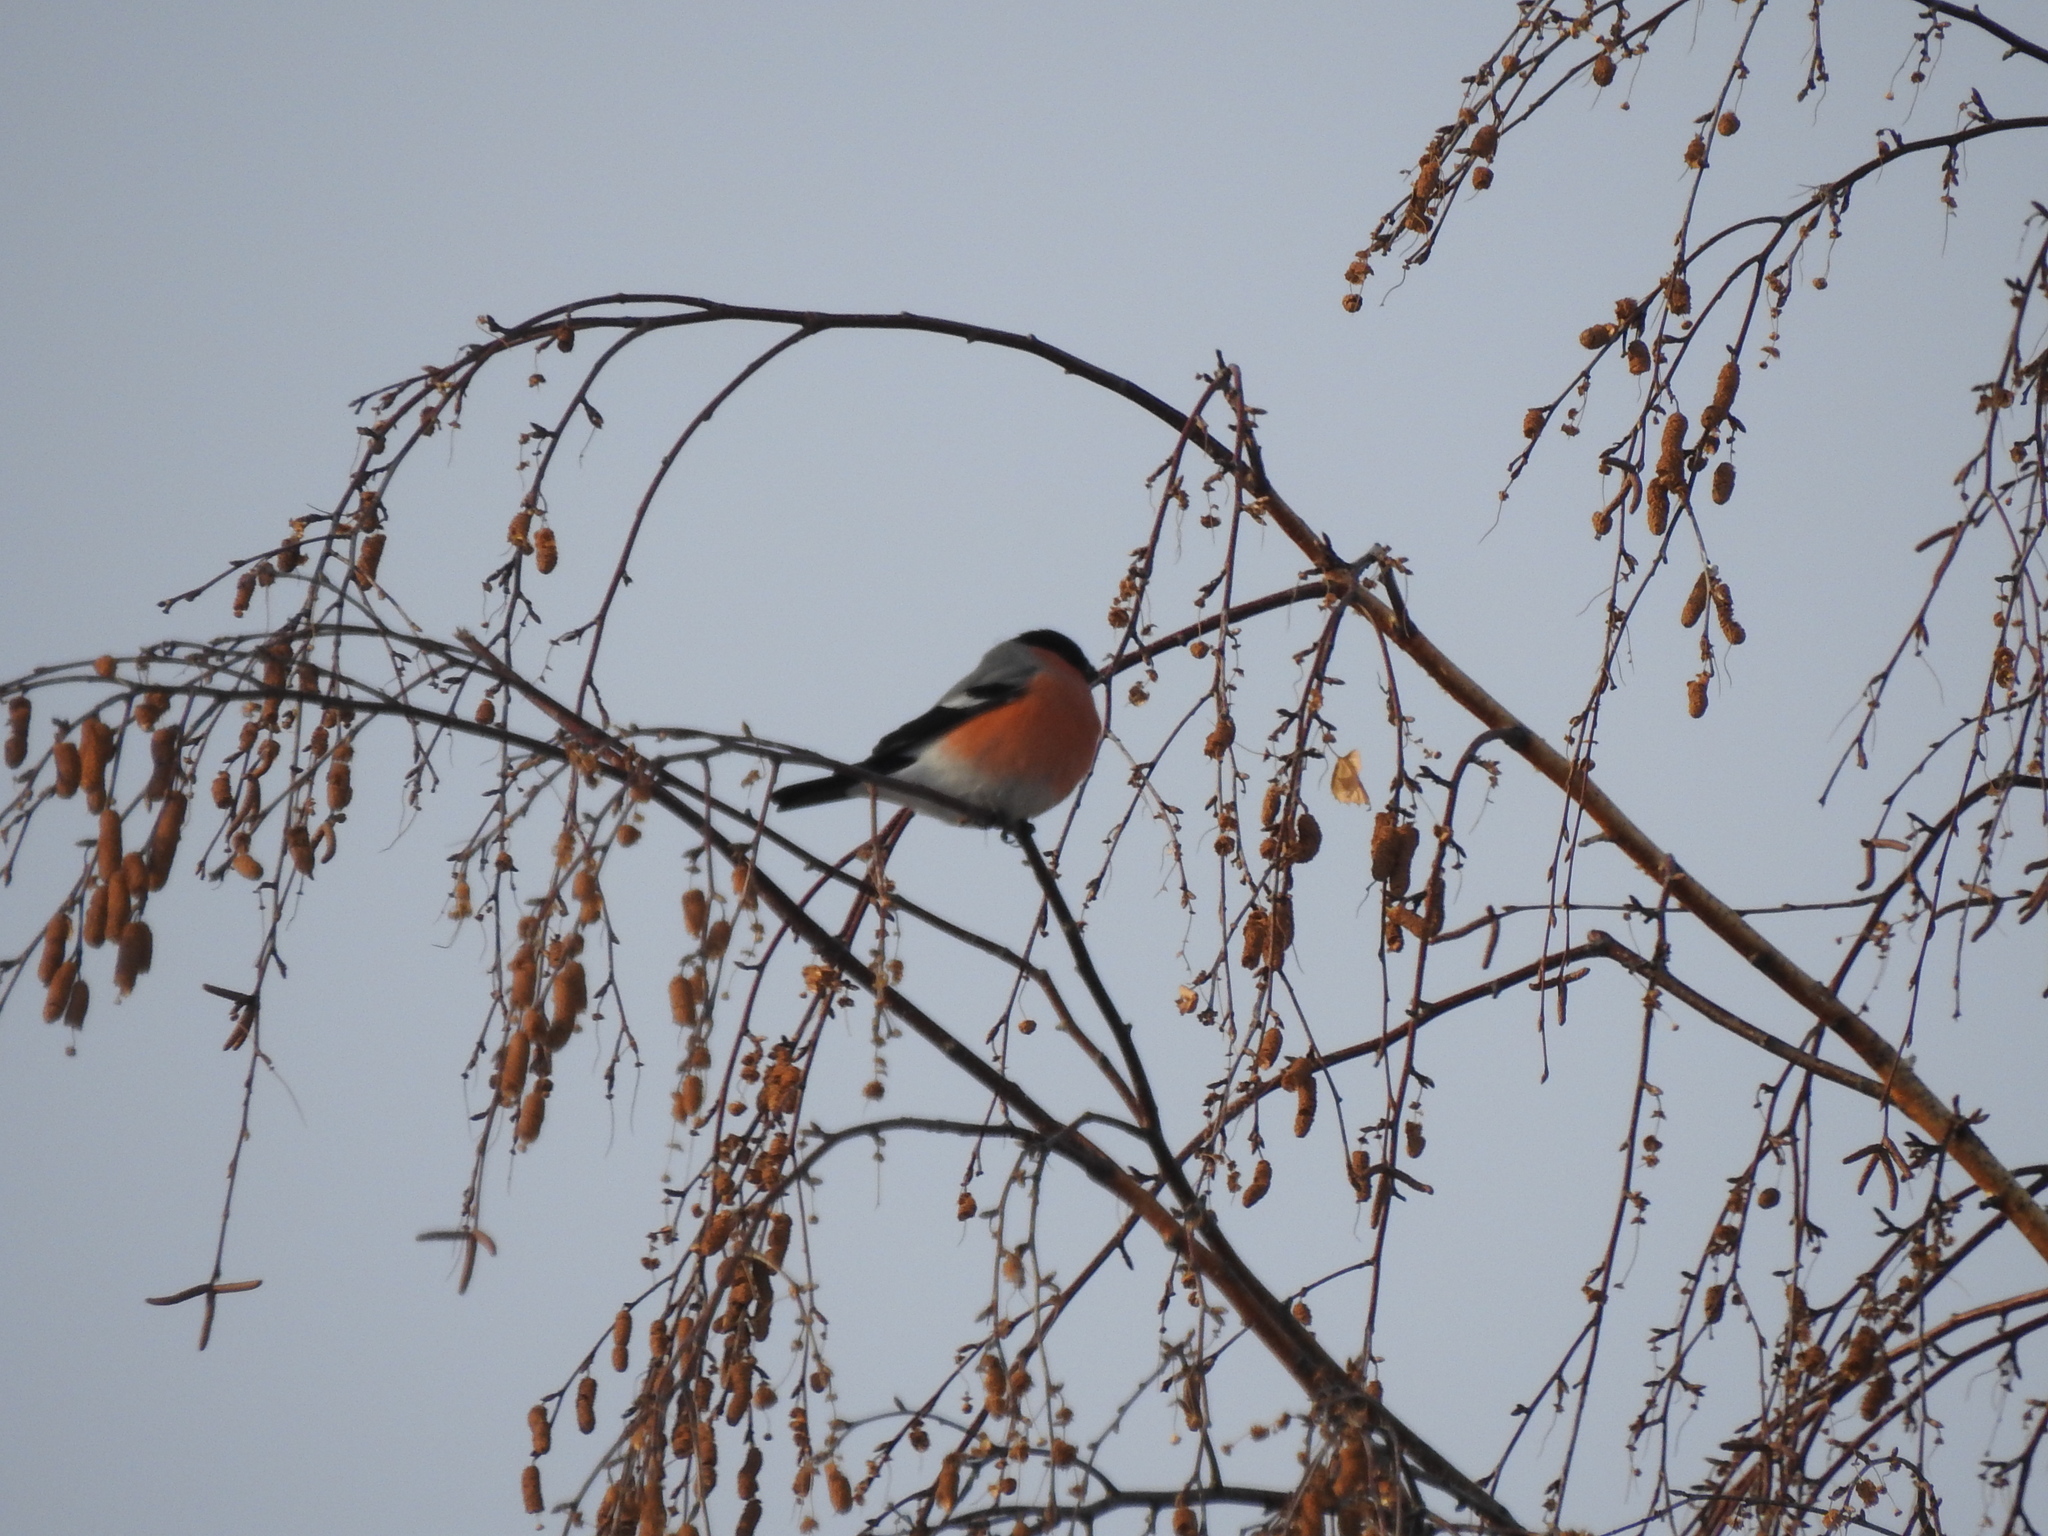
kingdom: Animalia
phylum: Chordata
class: Aves
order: Passeriformes
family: Fringillidae
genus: Pyrrhula
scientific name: Pyrrhula pyrrhula
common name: Eurasian bullfinch
